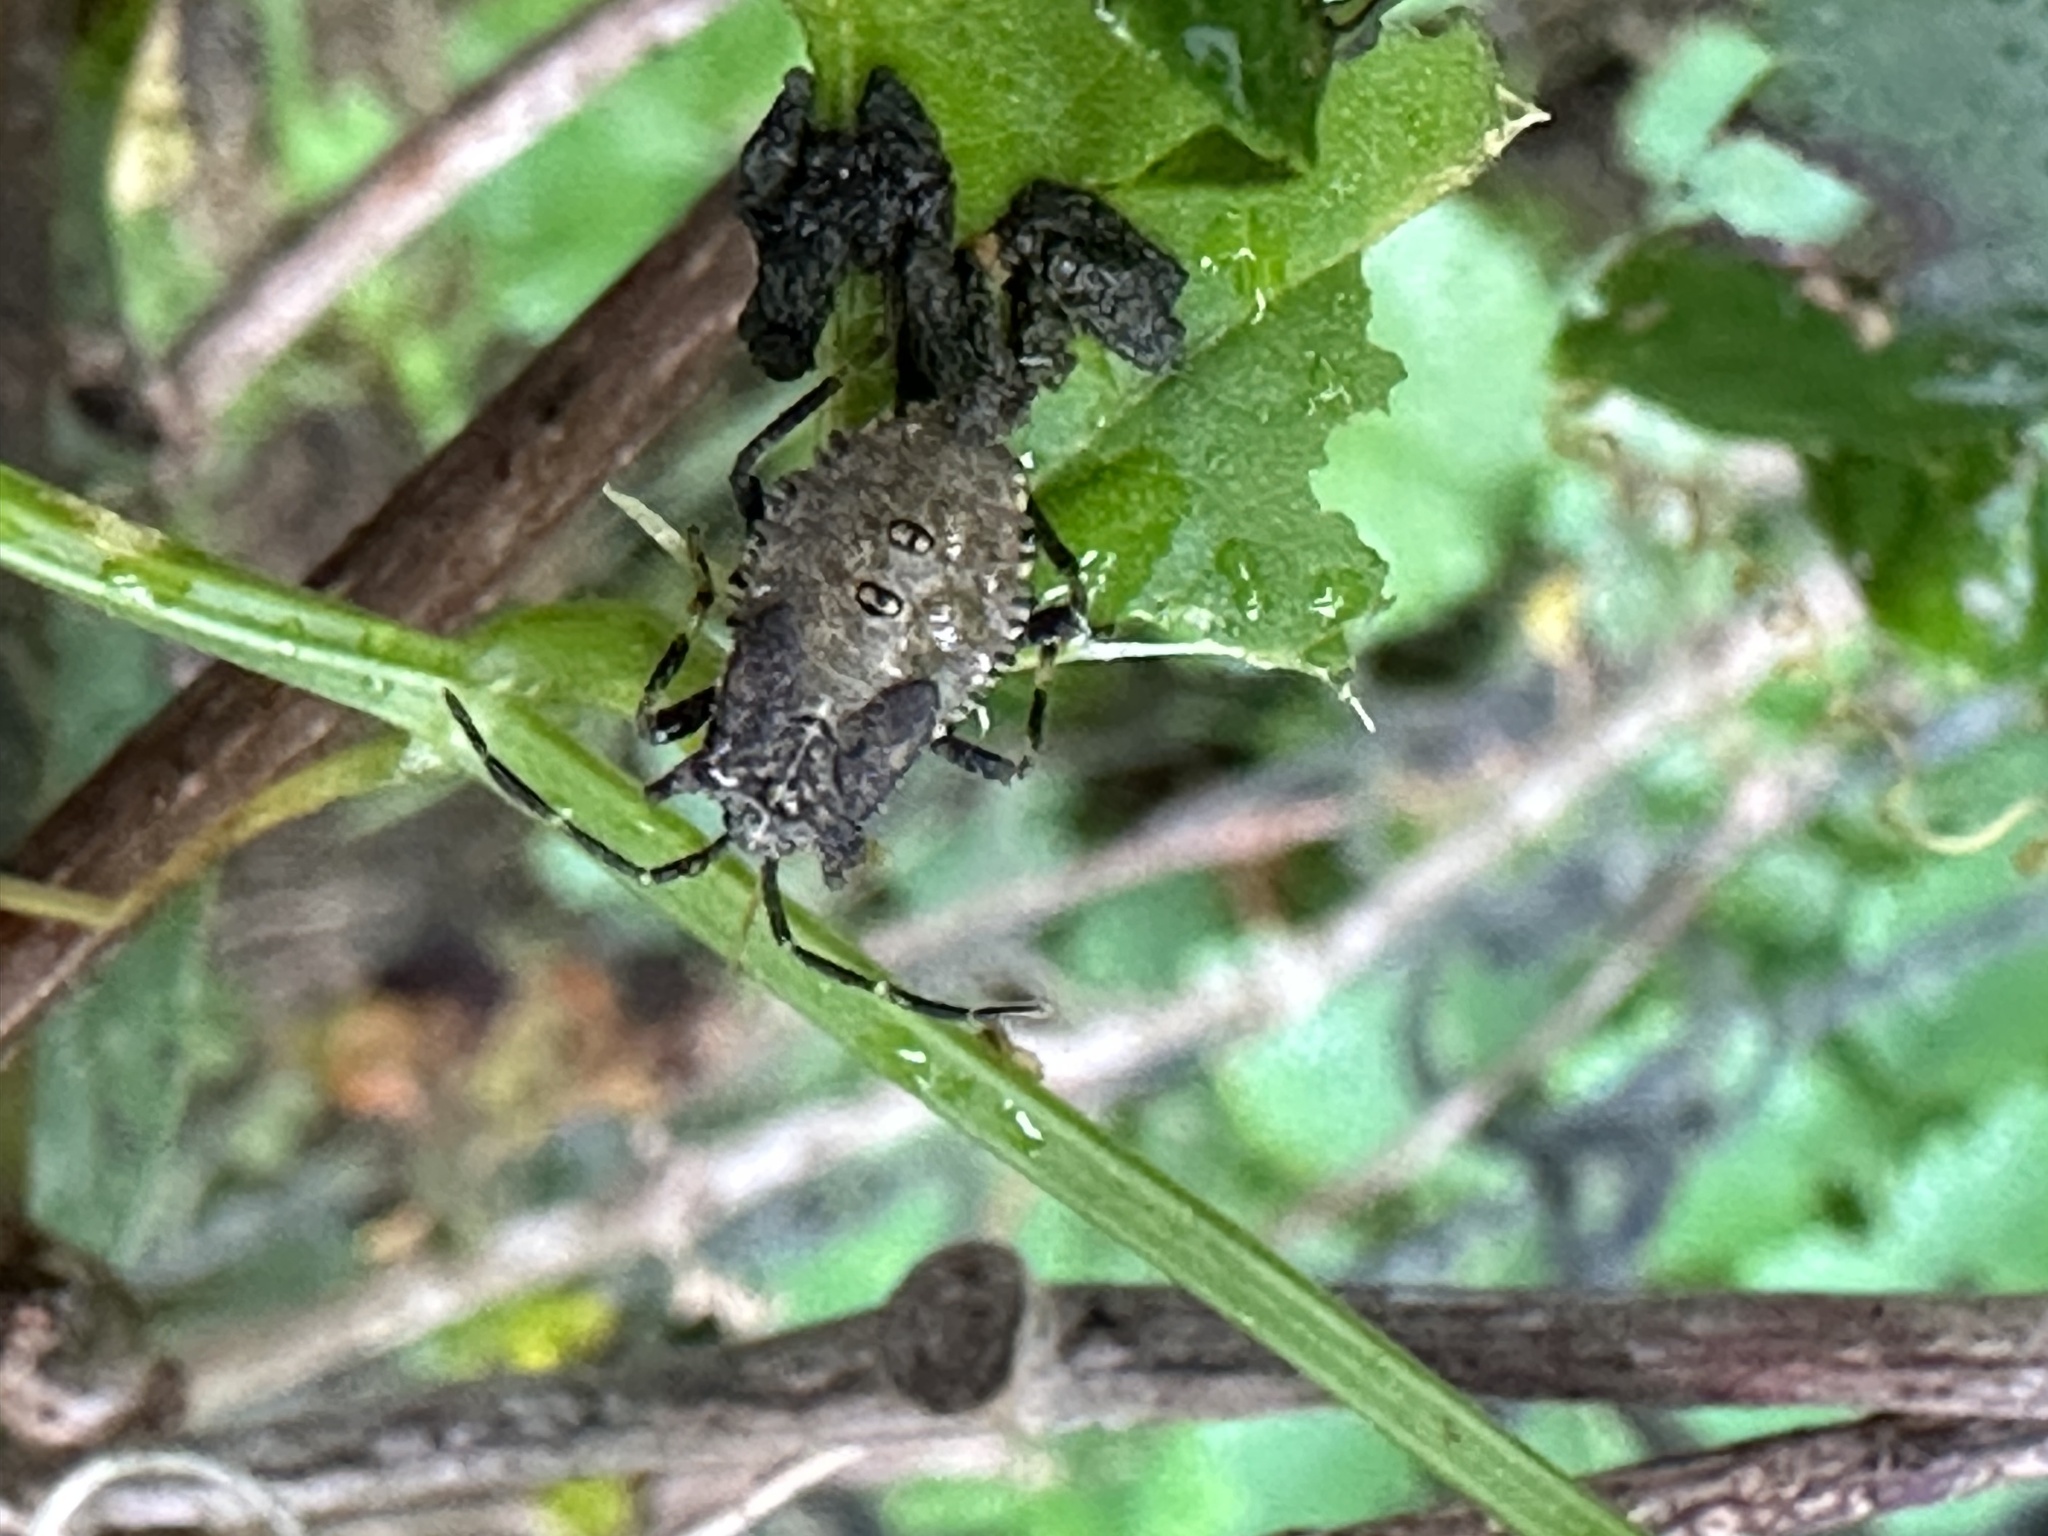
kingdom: Animalia
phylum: Arthropoda
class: Insecta
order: Hemiptera
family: Coreidae
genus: Anasa
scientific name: Anasa armigera
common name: Horned squash bug
